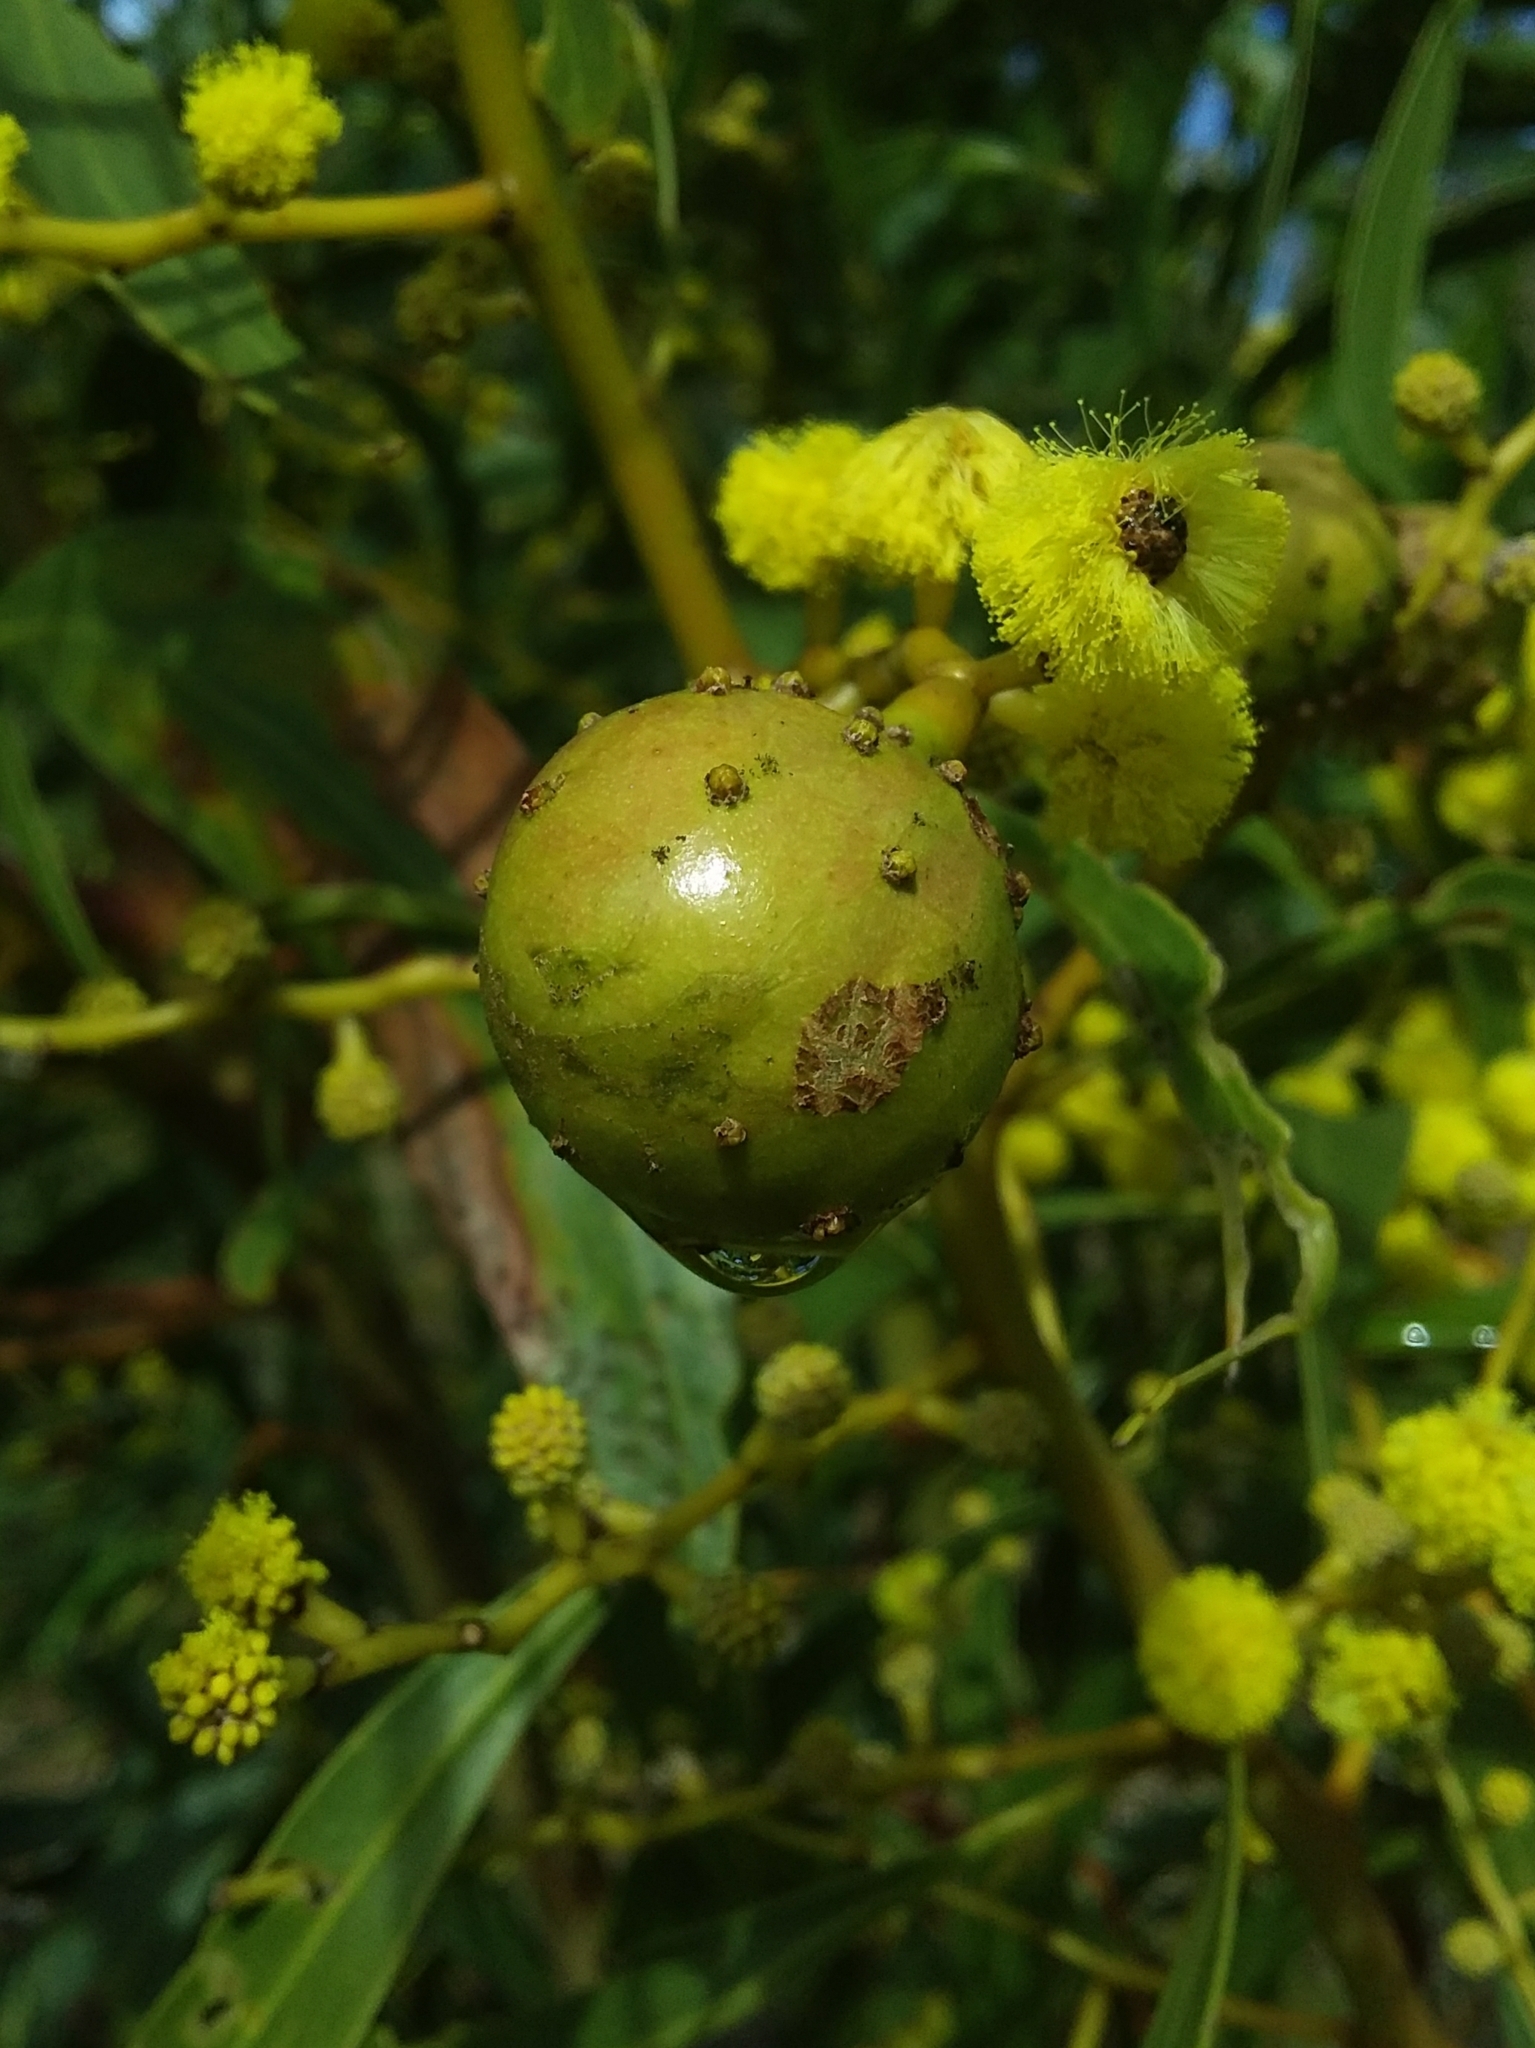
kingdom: Animalia
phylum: Arthropoda
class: Insecta
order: Hymenoptera
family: Pteromalidae
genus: Trichilogaster
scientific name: Trichilogaster signiventris
